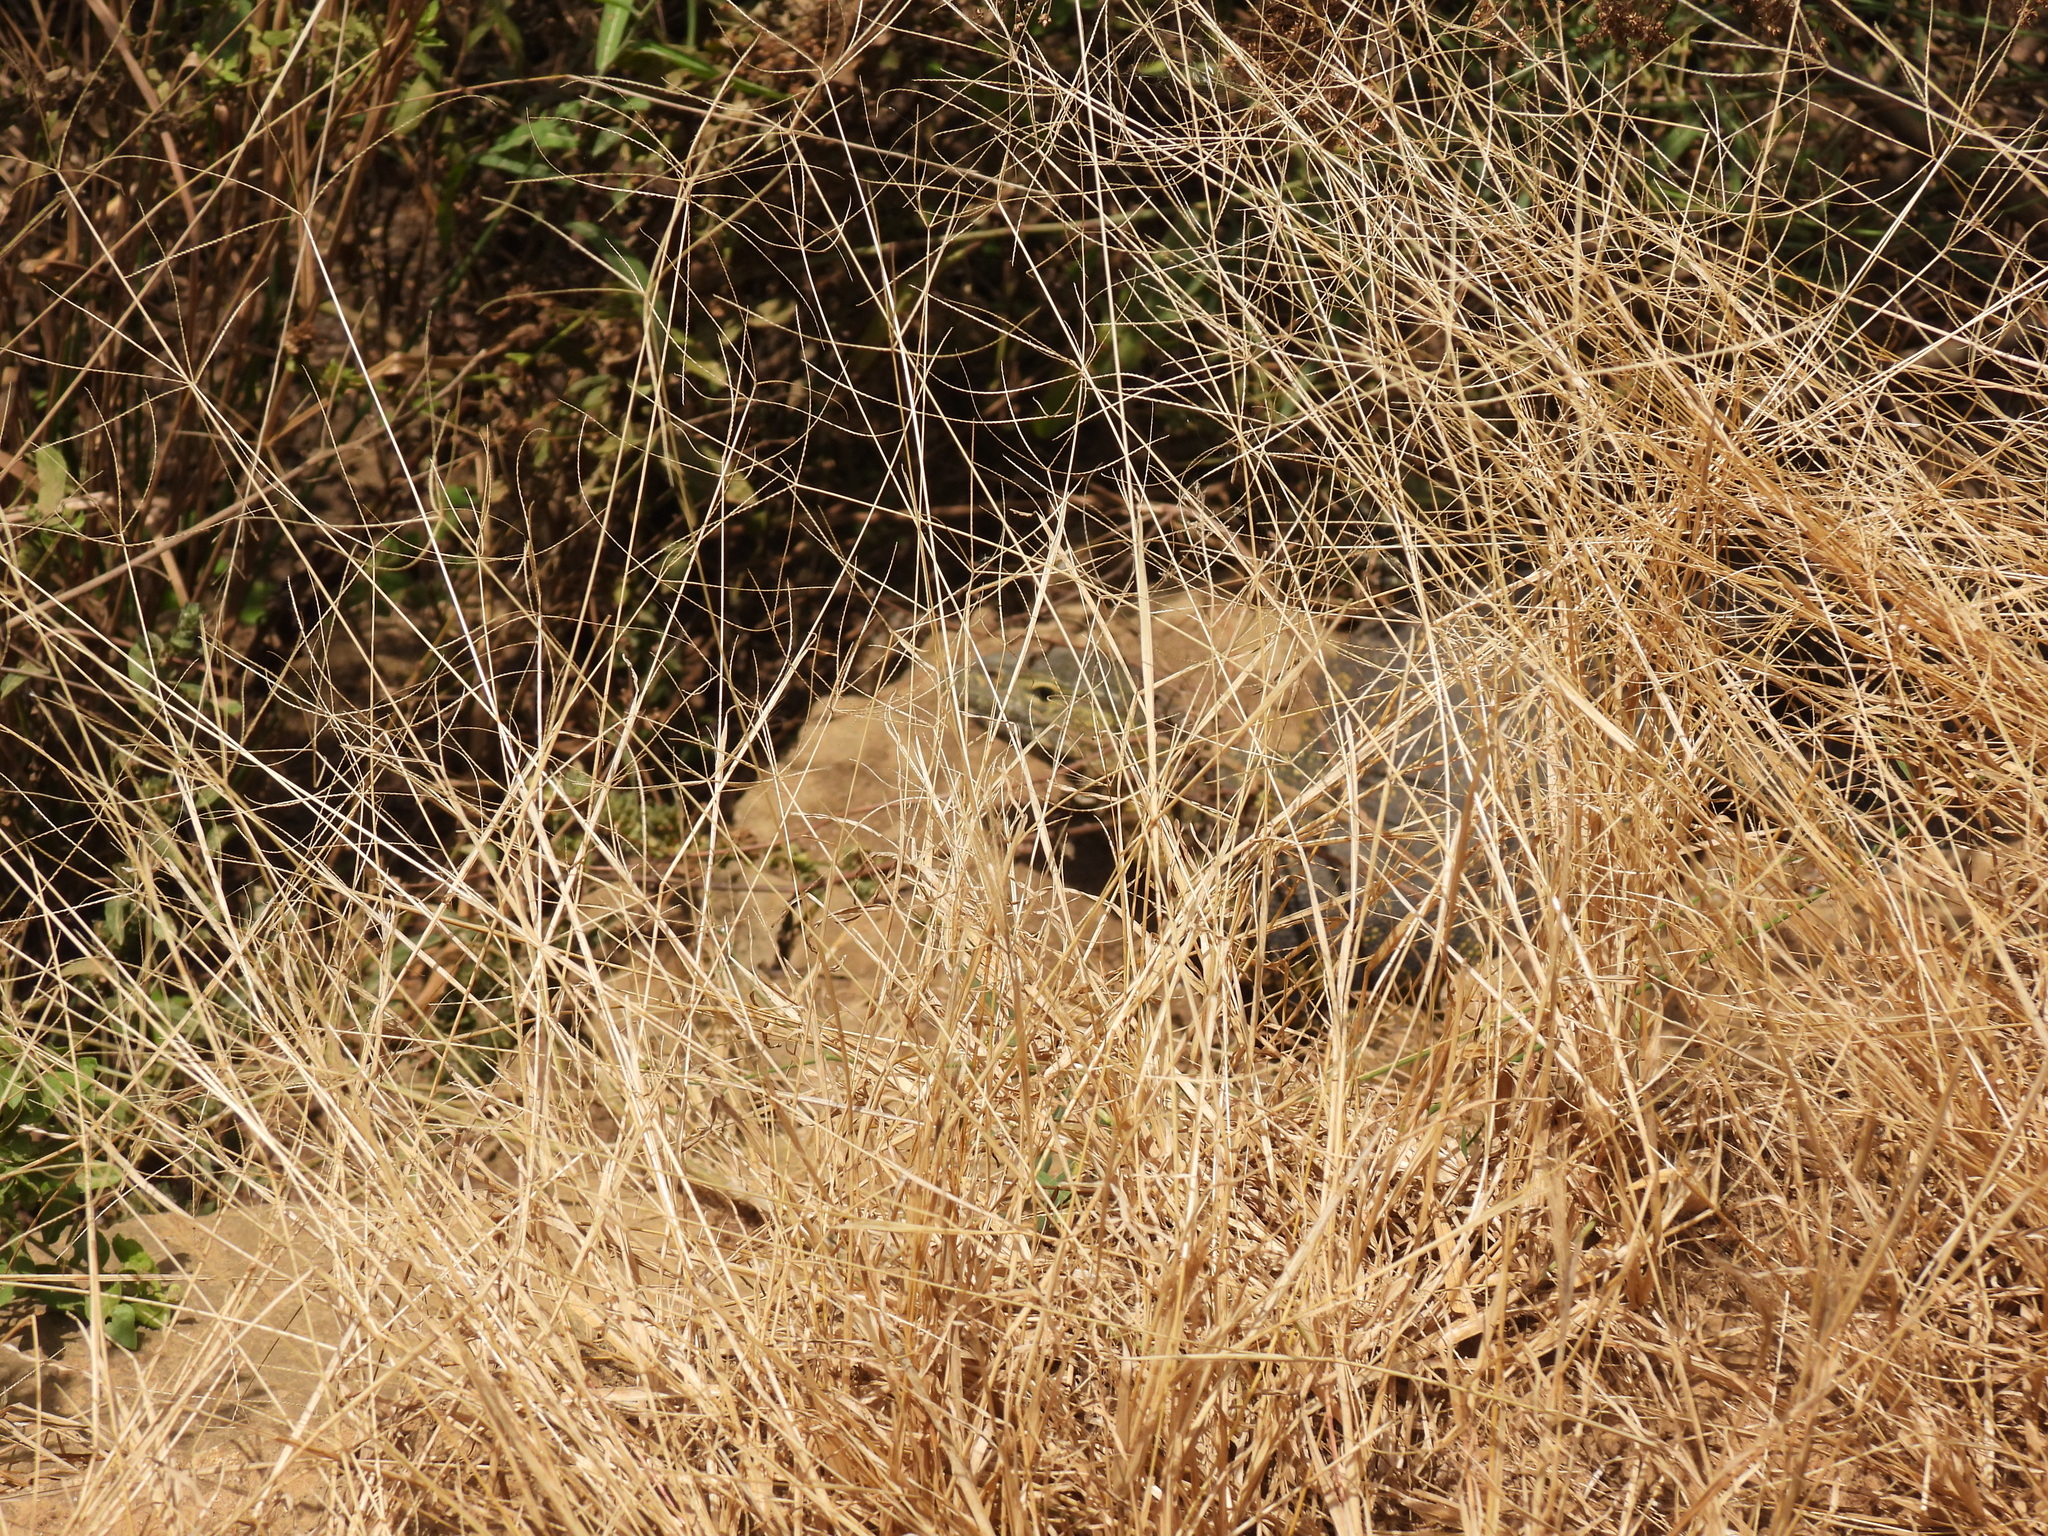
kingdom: Animalia
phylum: Chordata
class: Squamata
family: Varanidae
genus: Varanus
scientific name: Varanus niloticus
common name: Nile monitor
